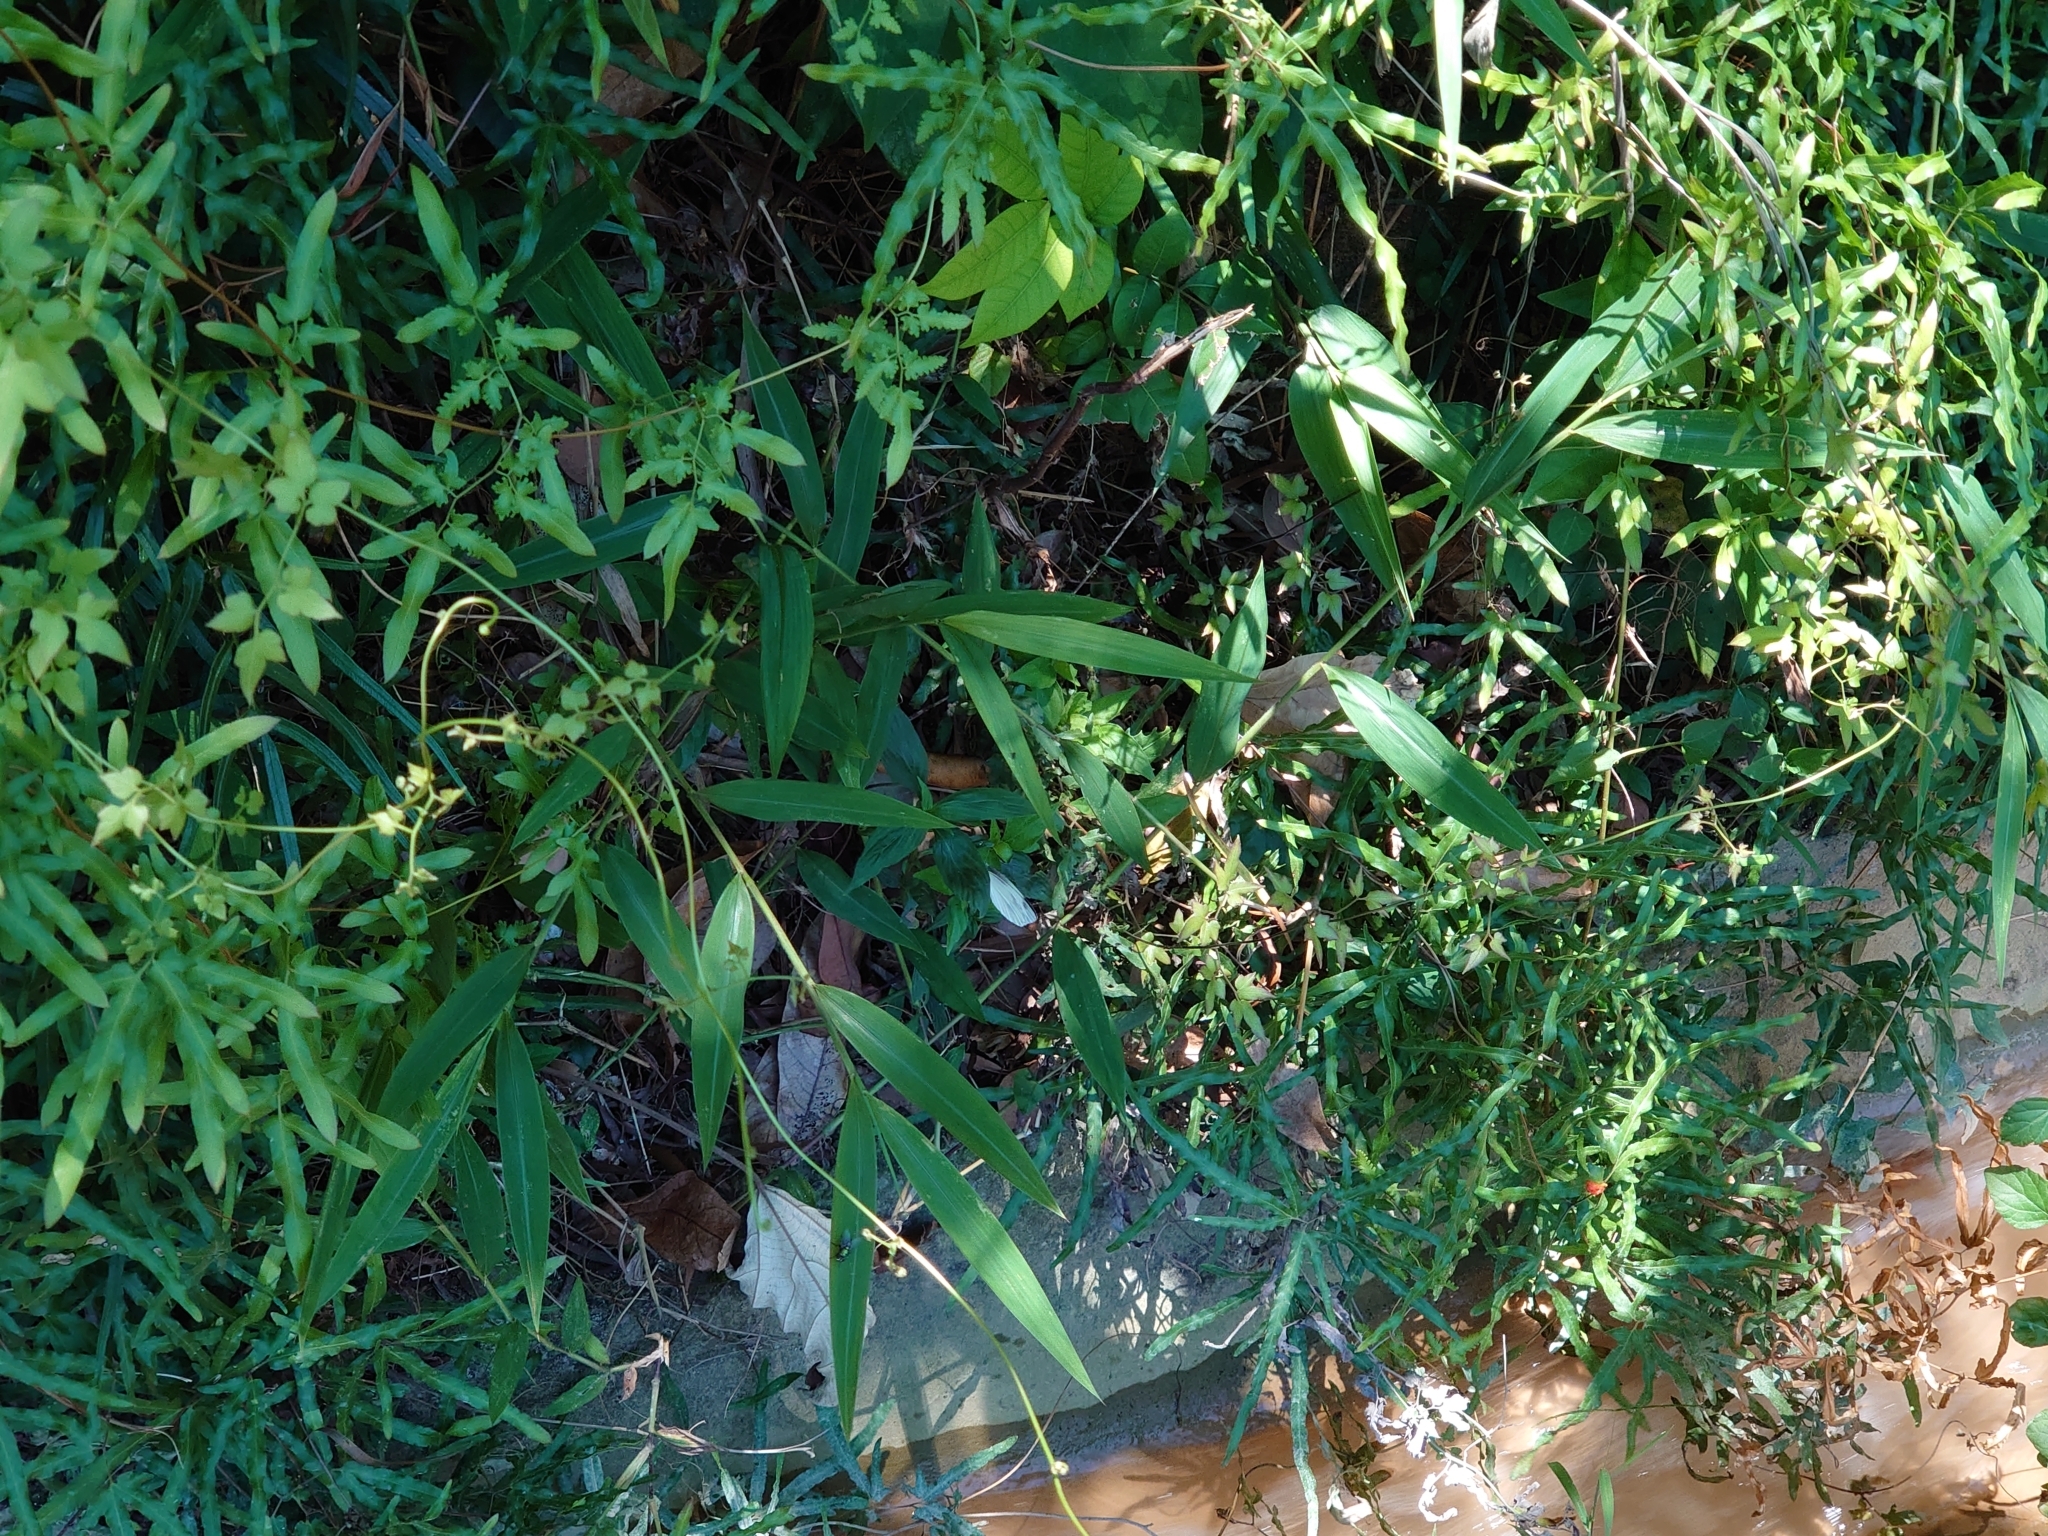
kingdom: Animalia
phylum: Arthropoda
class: Insecta
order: Lepidoptera
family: Pieridae
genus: Pieris
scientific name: Pieris canidia
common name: Indian cabbage white
